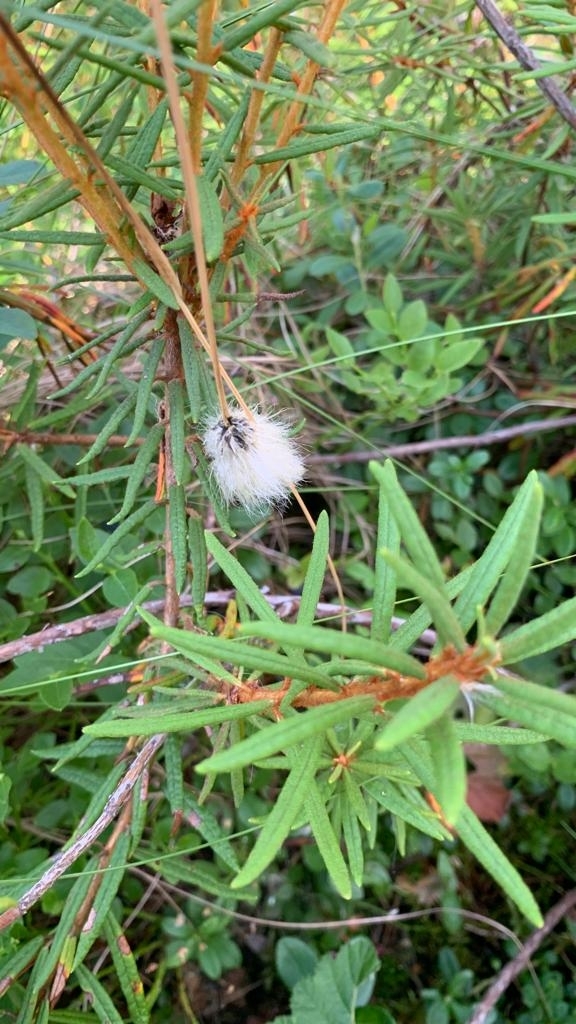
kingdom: Plantae
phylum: Tracheophyta
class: Liliopsida
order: Poales
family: Cyperaceae
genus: Eriophorum
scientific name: Eriophorum vaginatum
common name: Hare's-tail cottongrass
